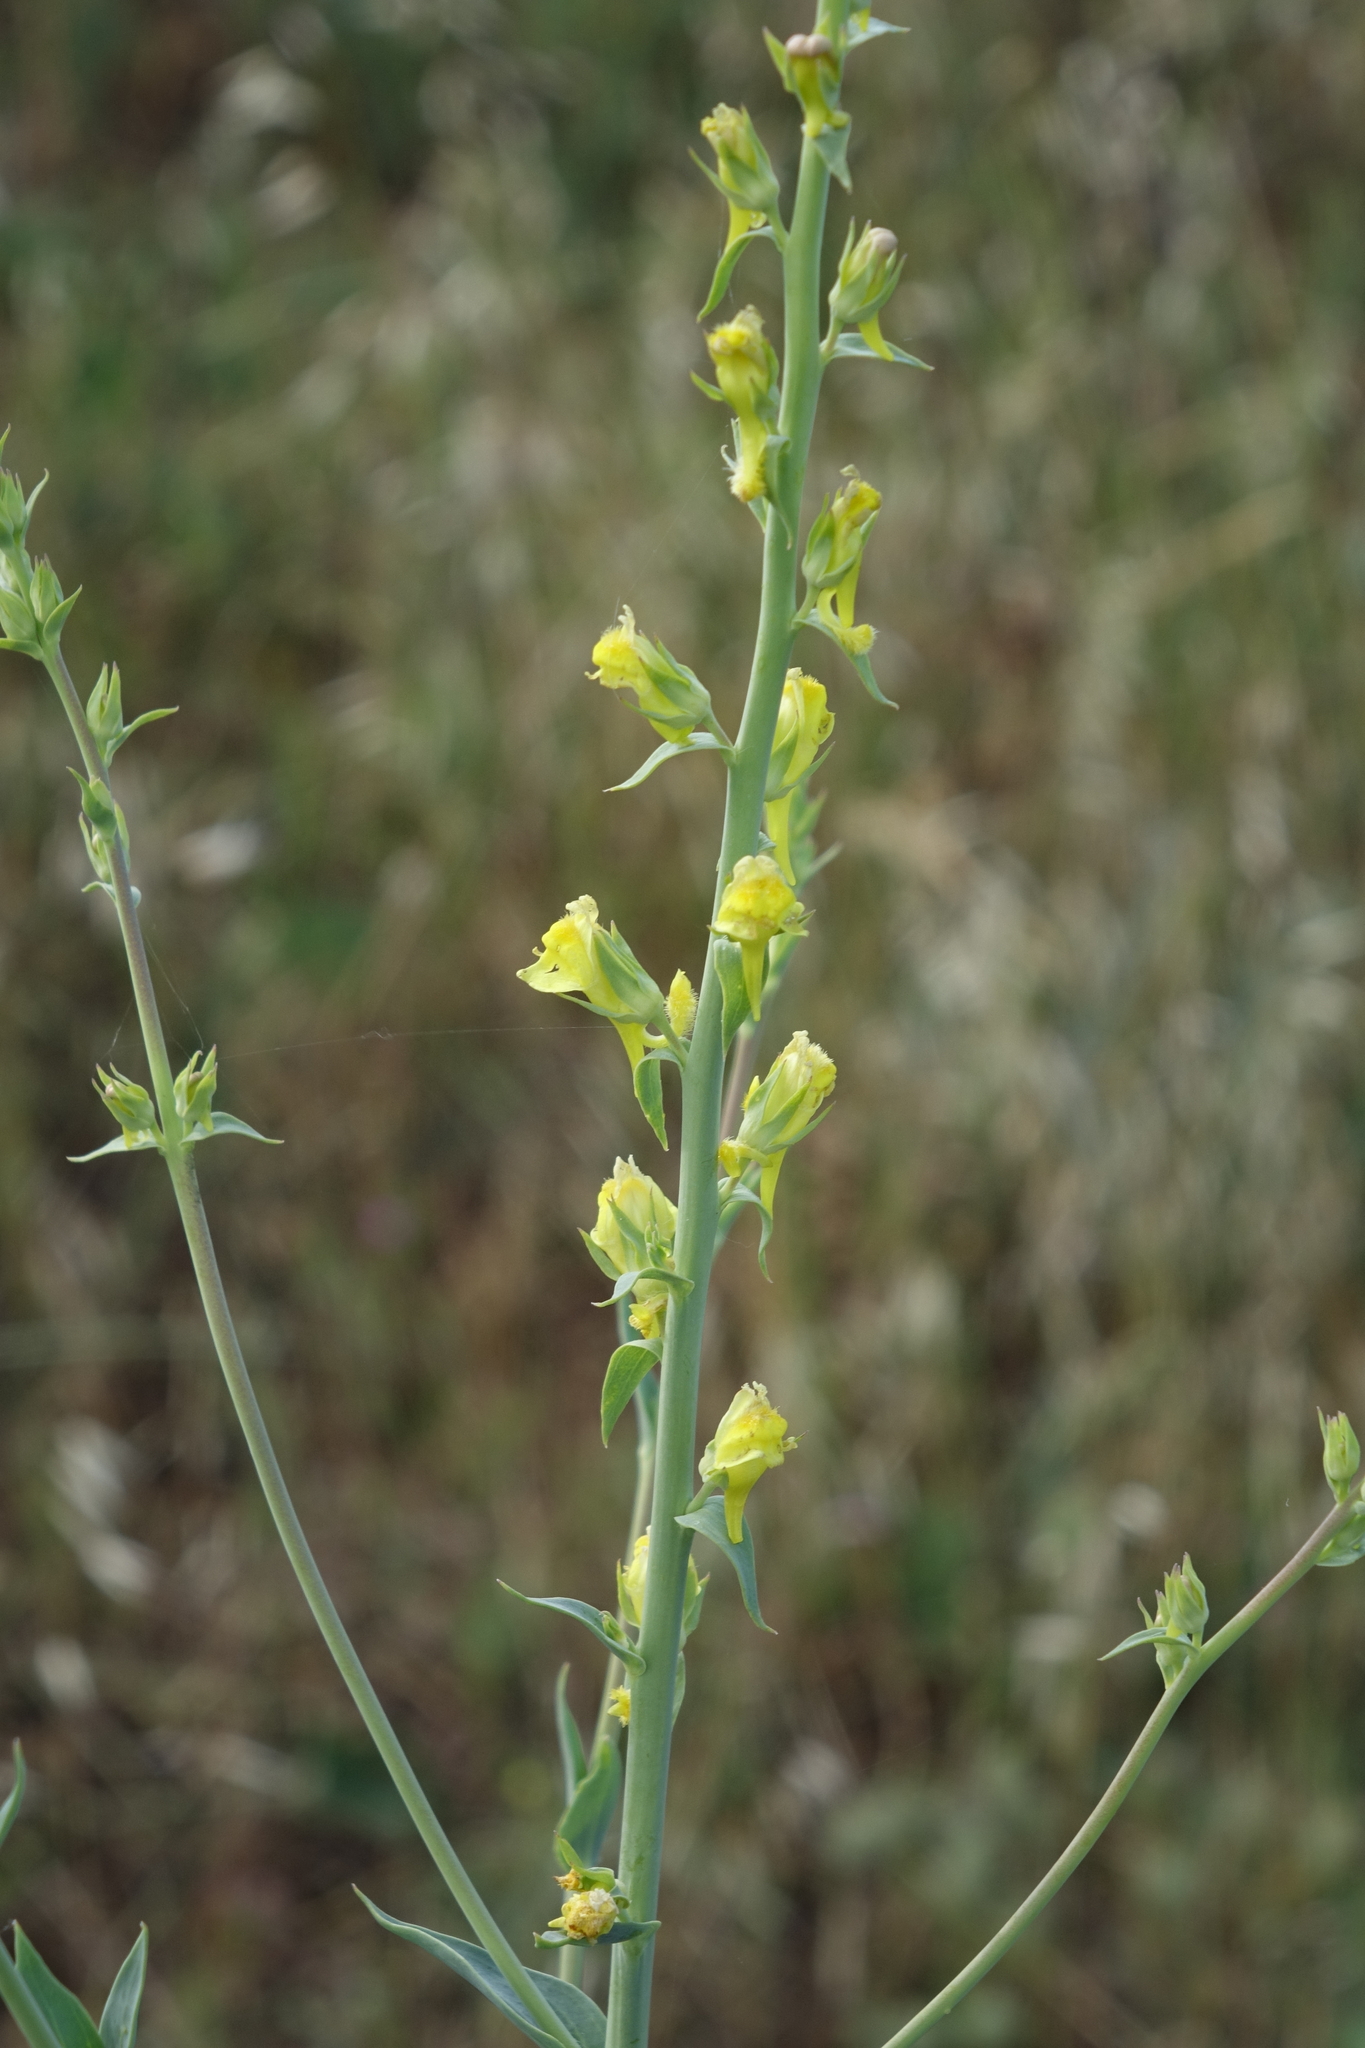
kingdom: Plantae
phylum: Tracheophyta
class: Magnoliopsida
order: Lamiales
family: Plantaginaceae
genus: Linaria
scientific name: Linaria genistifolia
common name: Broomleaf toadflax
